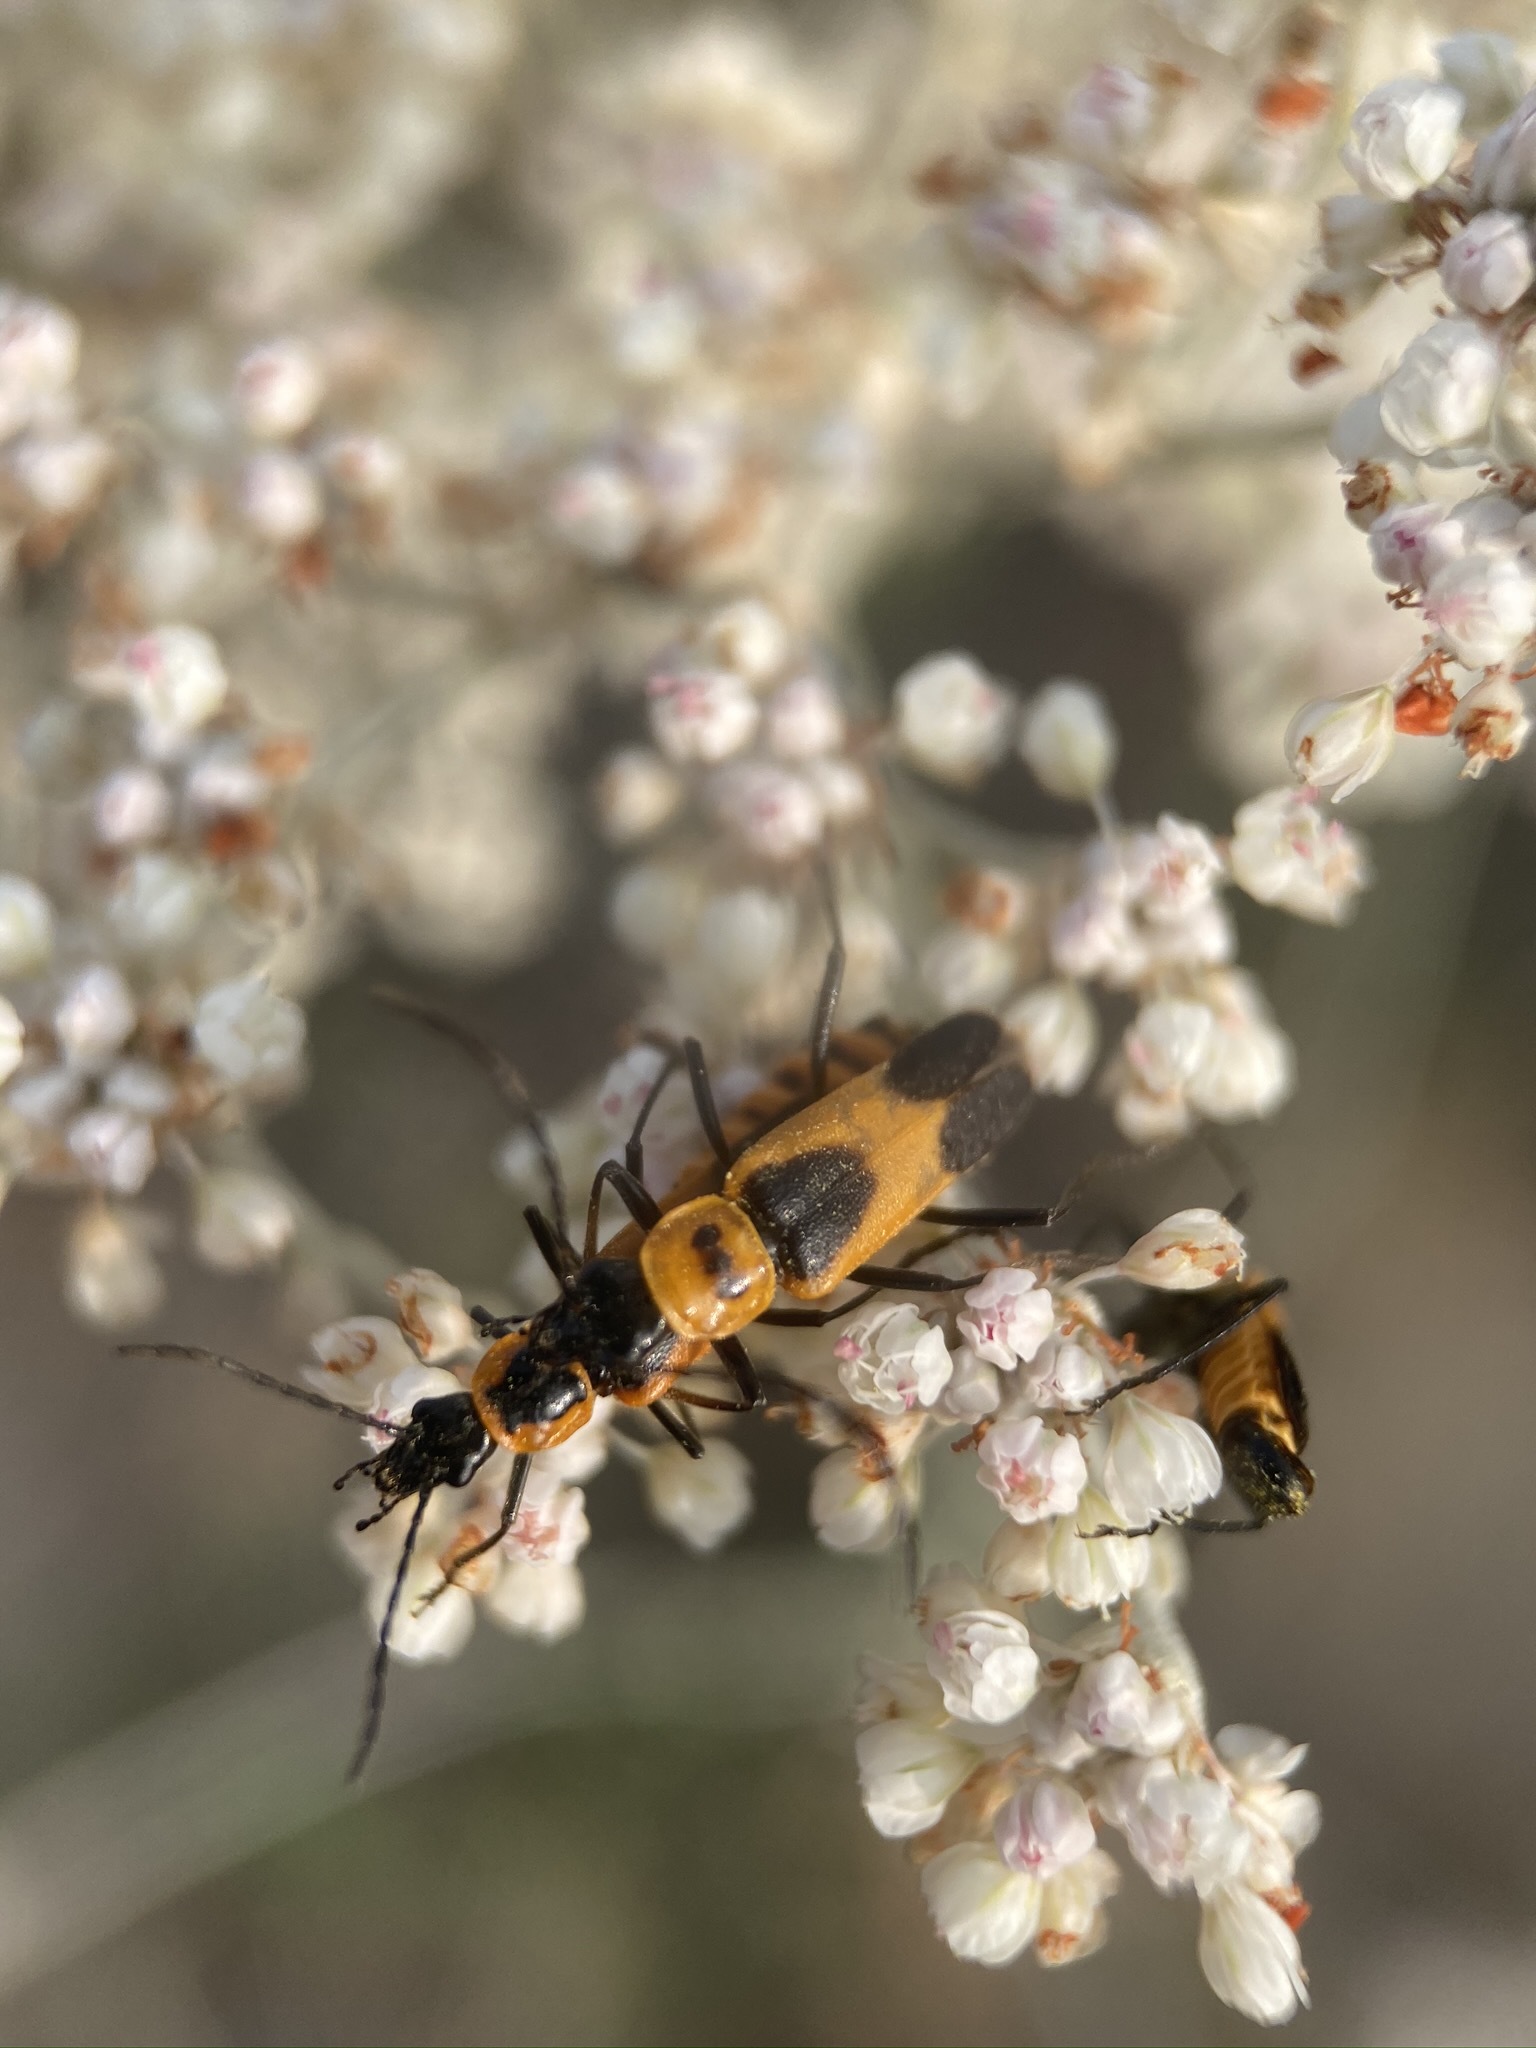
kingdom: Animalia
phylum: Arthropoda
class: Insecta
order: Coleoptera
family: Cantharidae
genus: Chauliognathus
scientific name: Chauliognathus basalis
